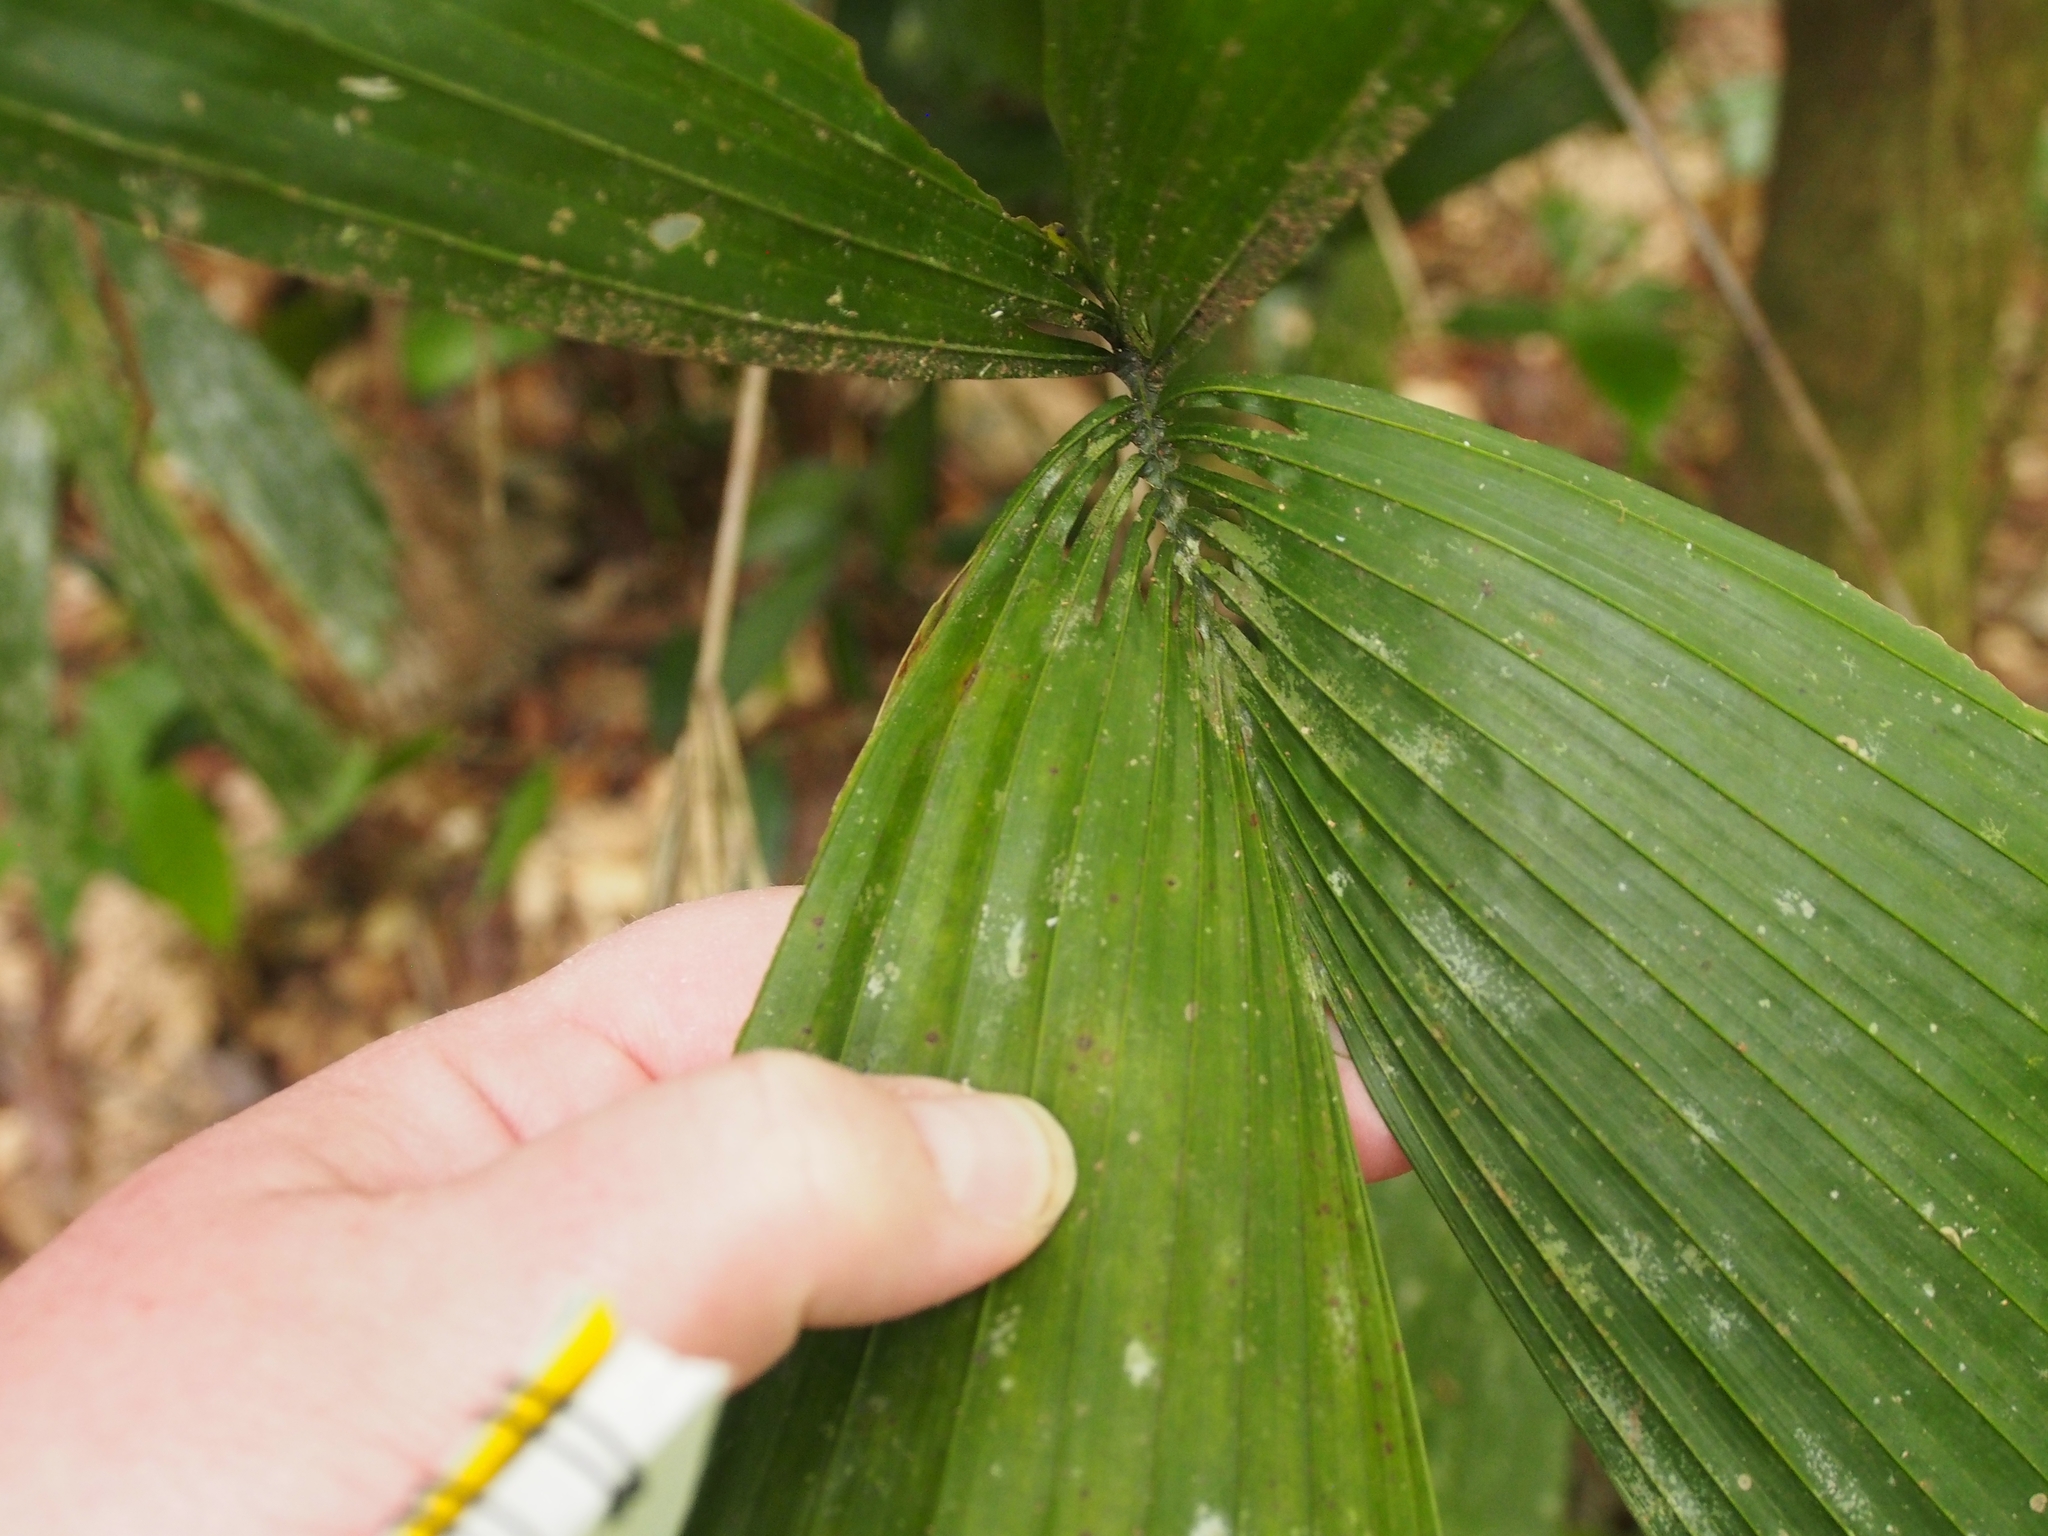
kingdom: Plantae
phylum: Tracheophyta
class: Liliopsida
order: Arecales
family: Arecaceae
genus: Reinhardtia
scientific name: Reinhardtia gracilis
